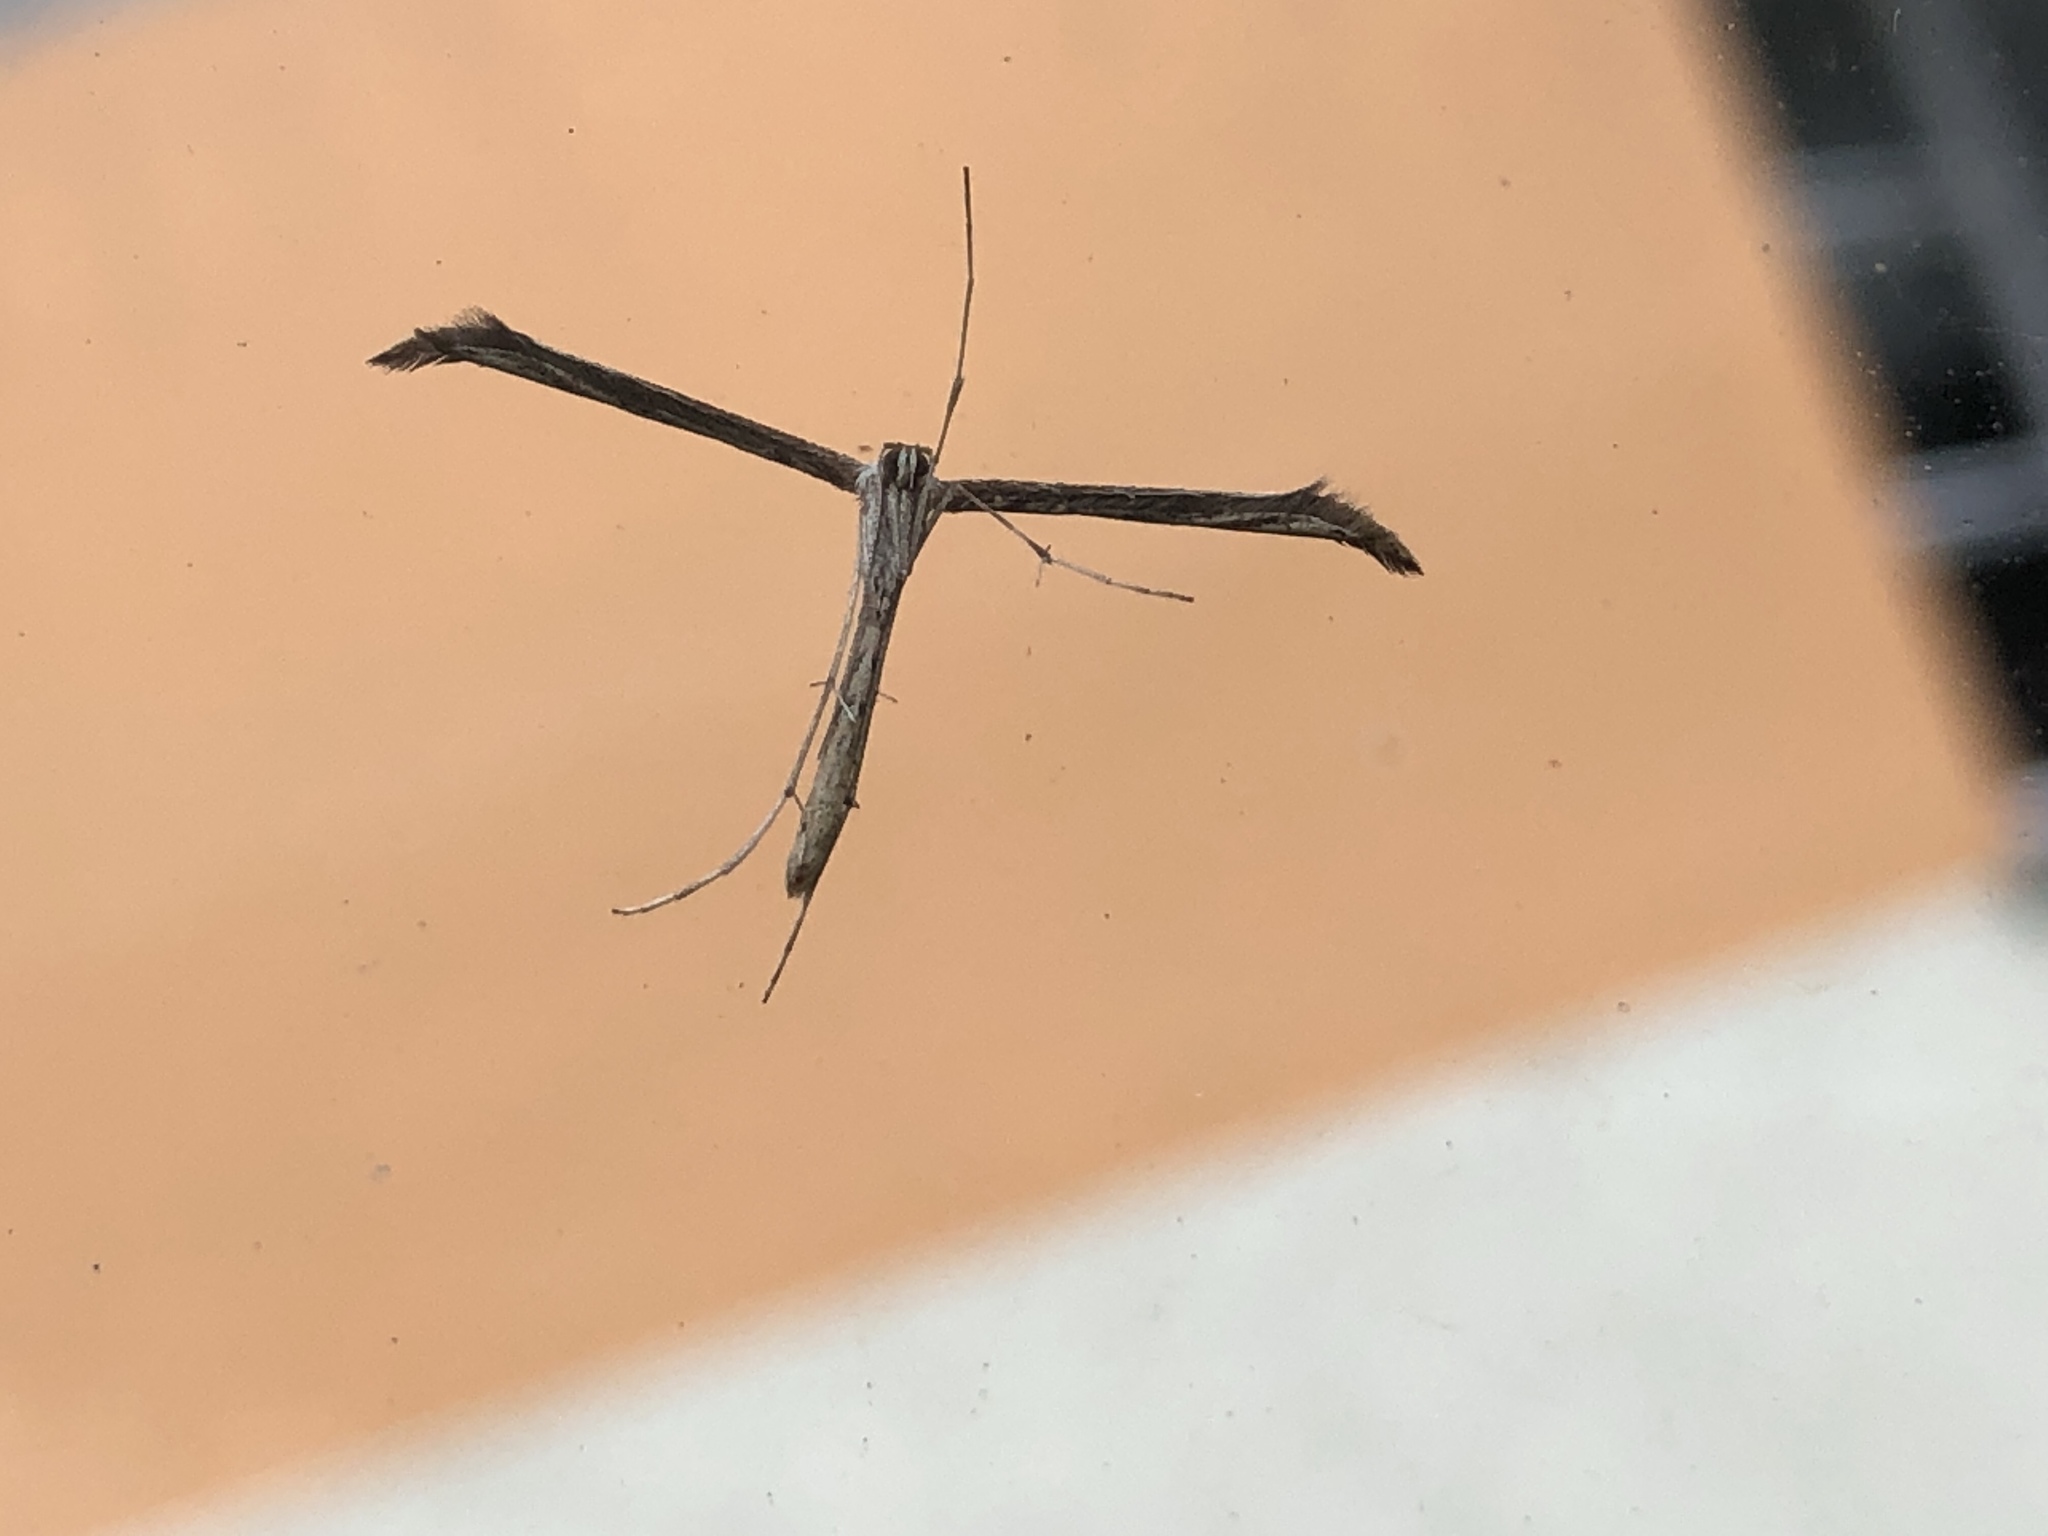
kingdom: Animalia
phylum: Arthropoda
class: Insecta
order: Lepidoptera
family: Pterophoridae
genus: Emmelina
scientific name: Emmelina monodactyla
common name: Common plume
